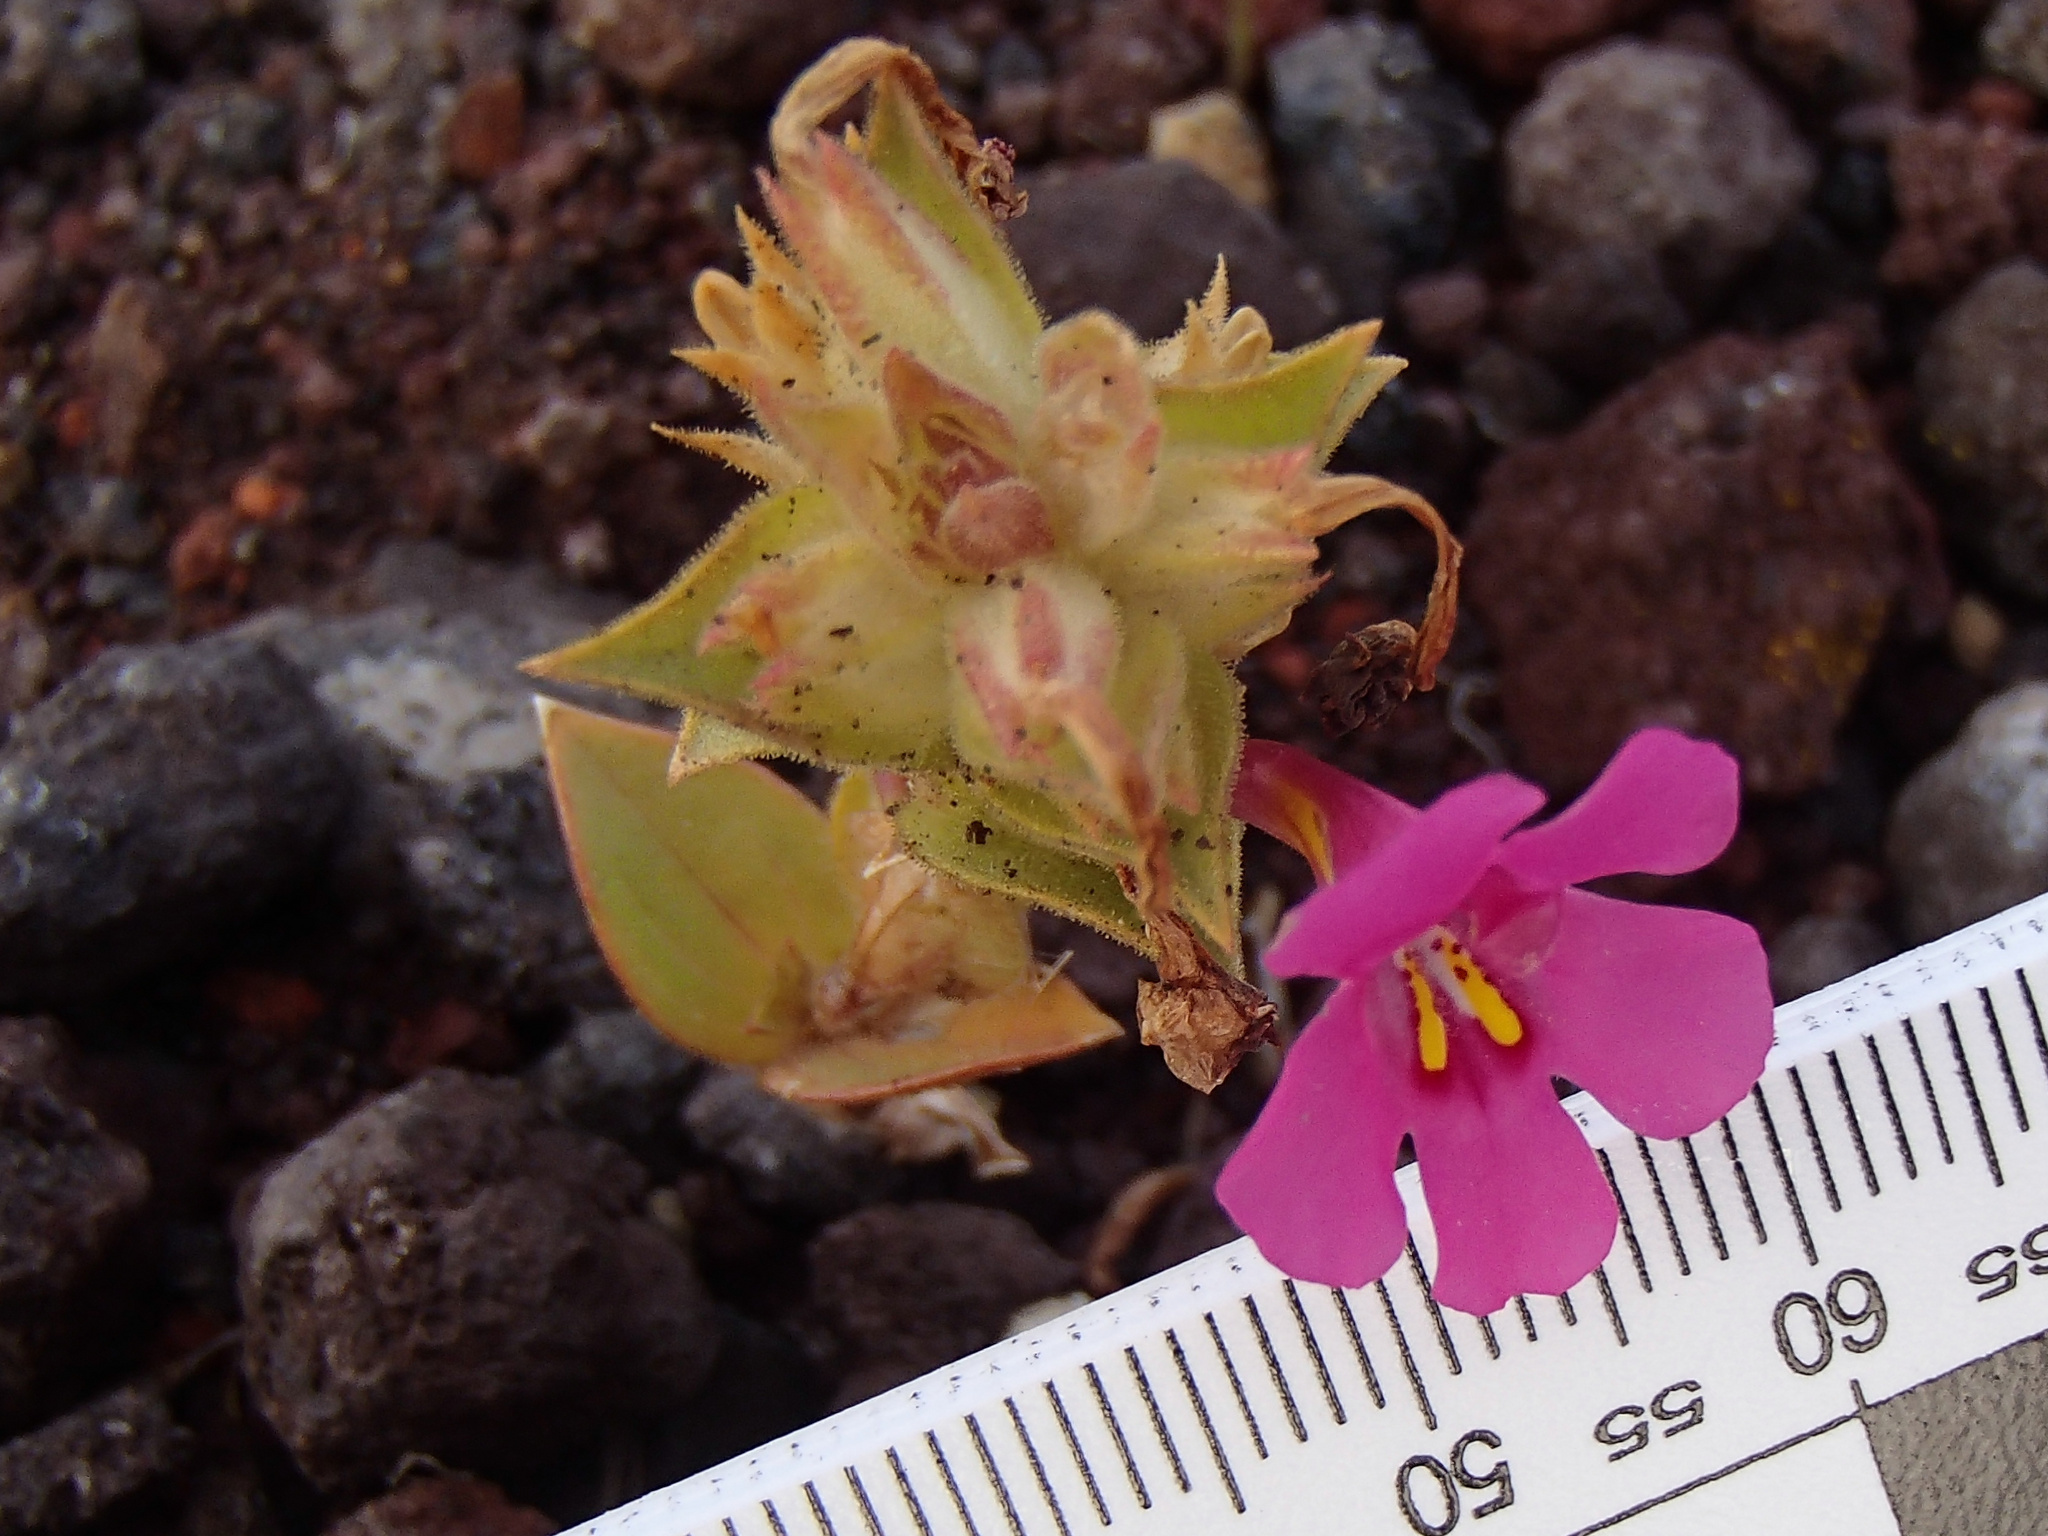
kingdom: Plantae
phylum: Tracheophyta
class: Magnoliopsida
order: Lamiales
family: Phrymaceae
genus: Diplacus
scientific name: Diplacus cusickioides
